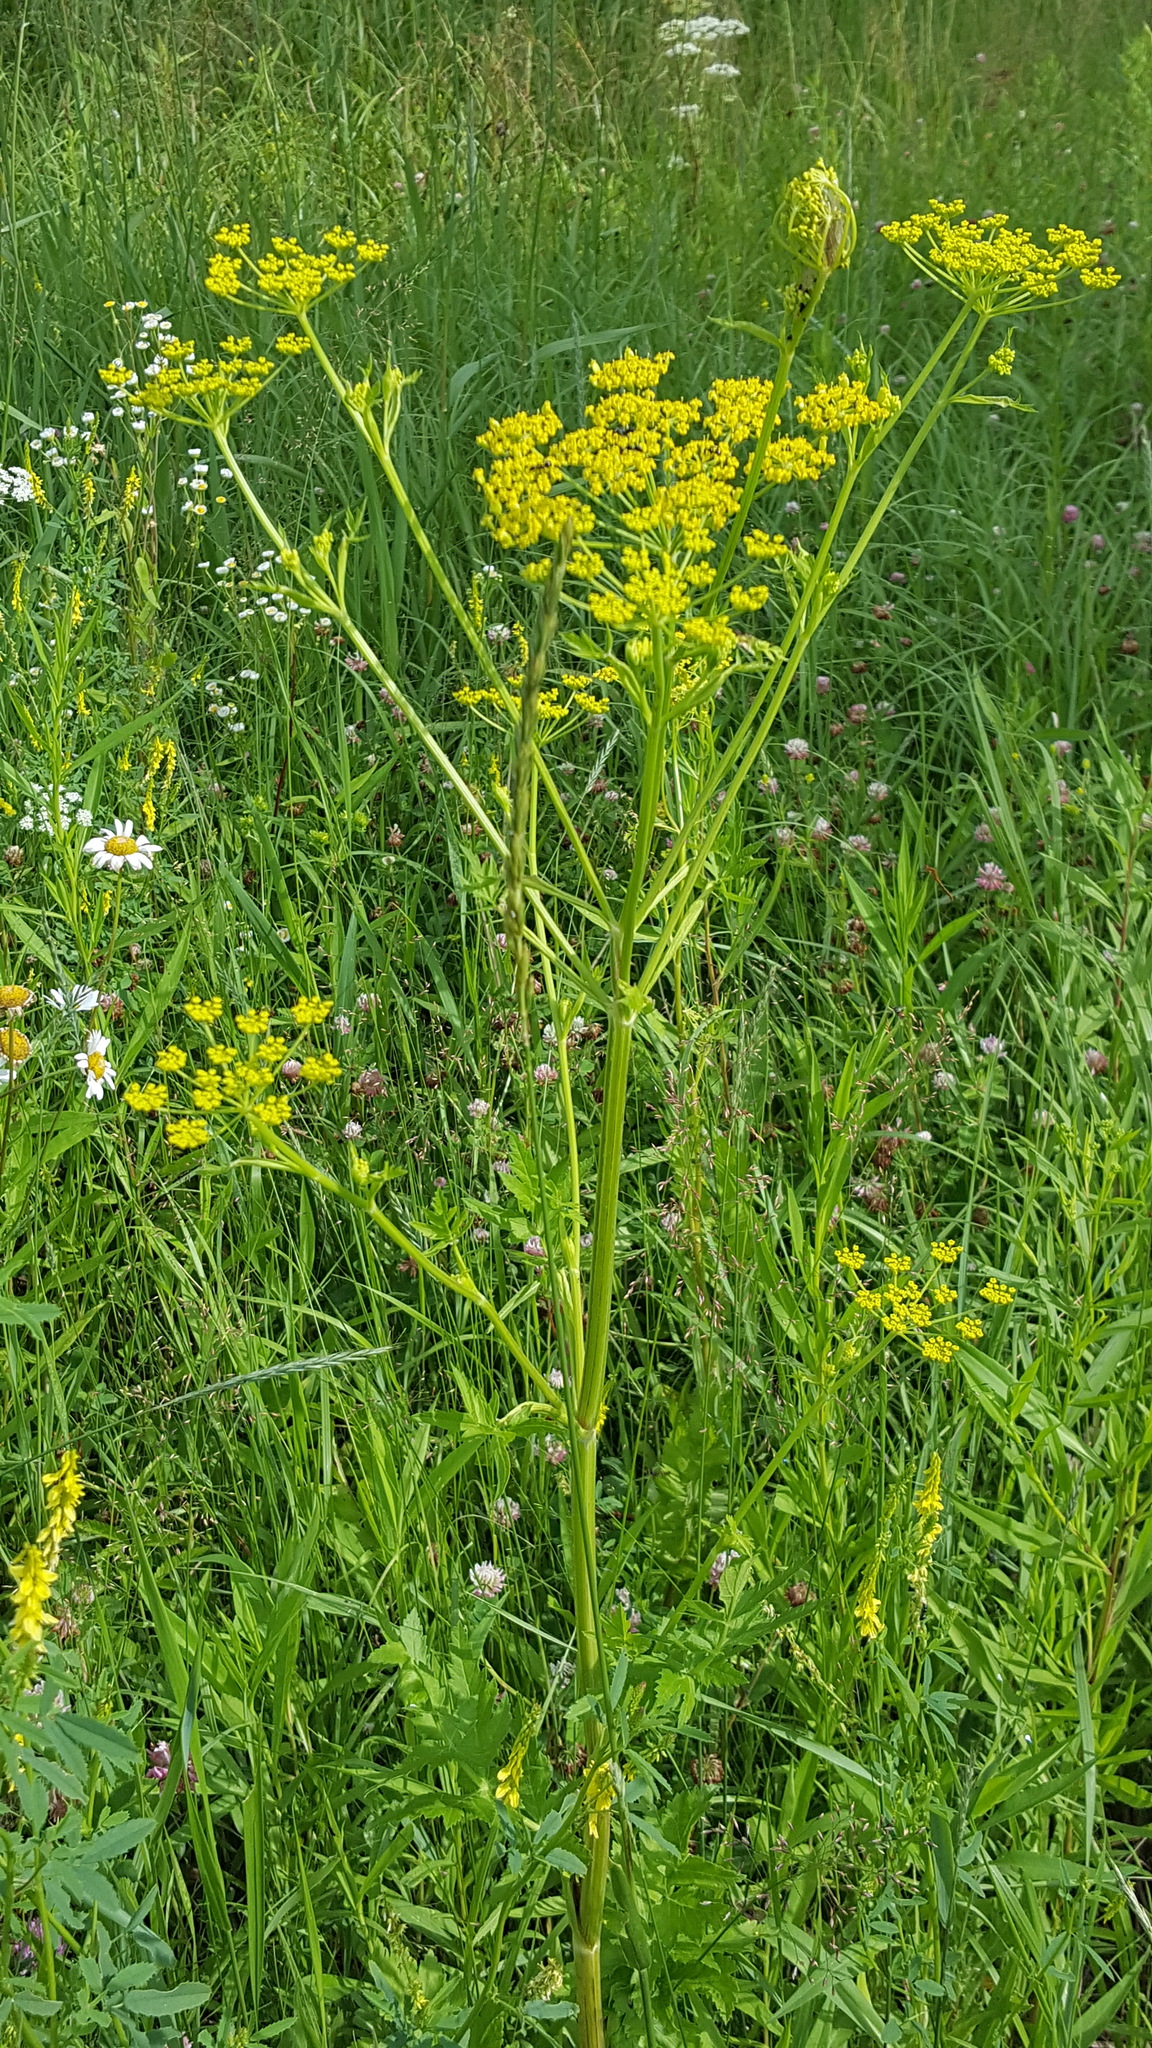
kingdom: Plantae
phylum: Tracheophyta
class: Magnoliopsida
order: Apiales
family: Apiaceae
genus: Pastinaca
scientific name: Pastinaca sativa
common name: Wild parsnip
